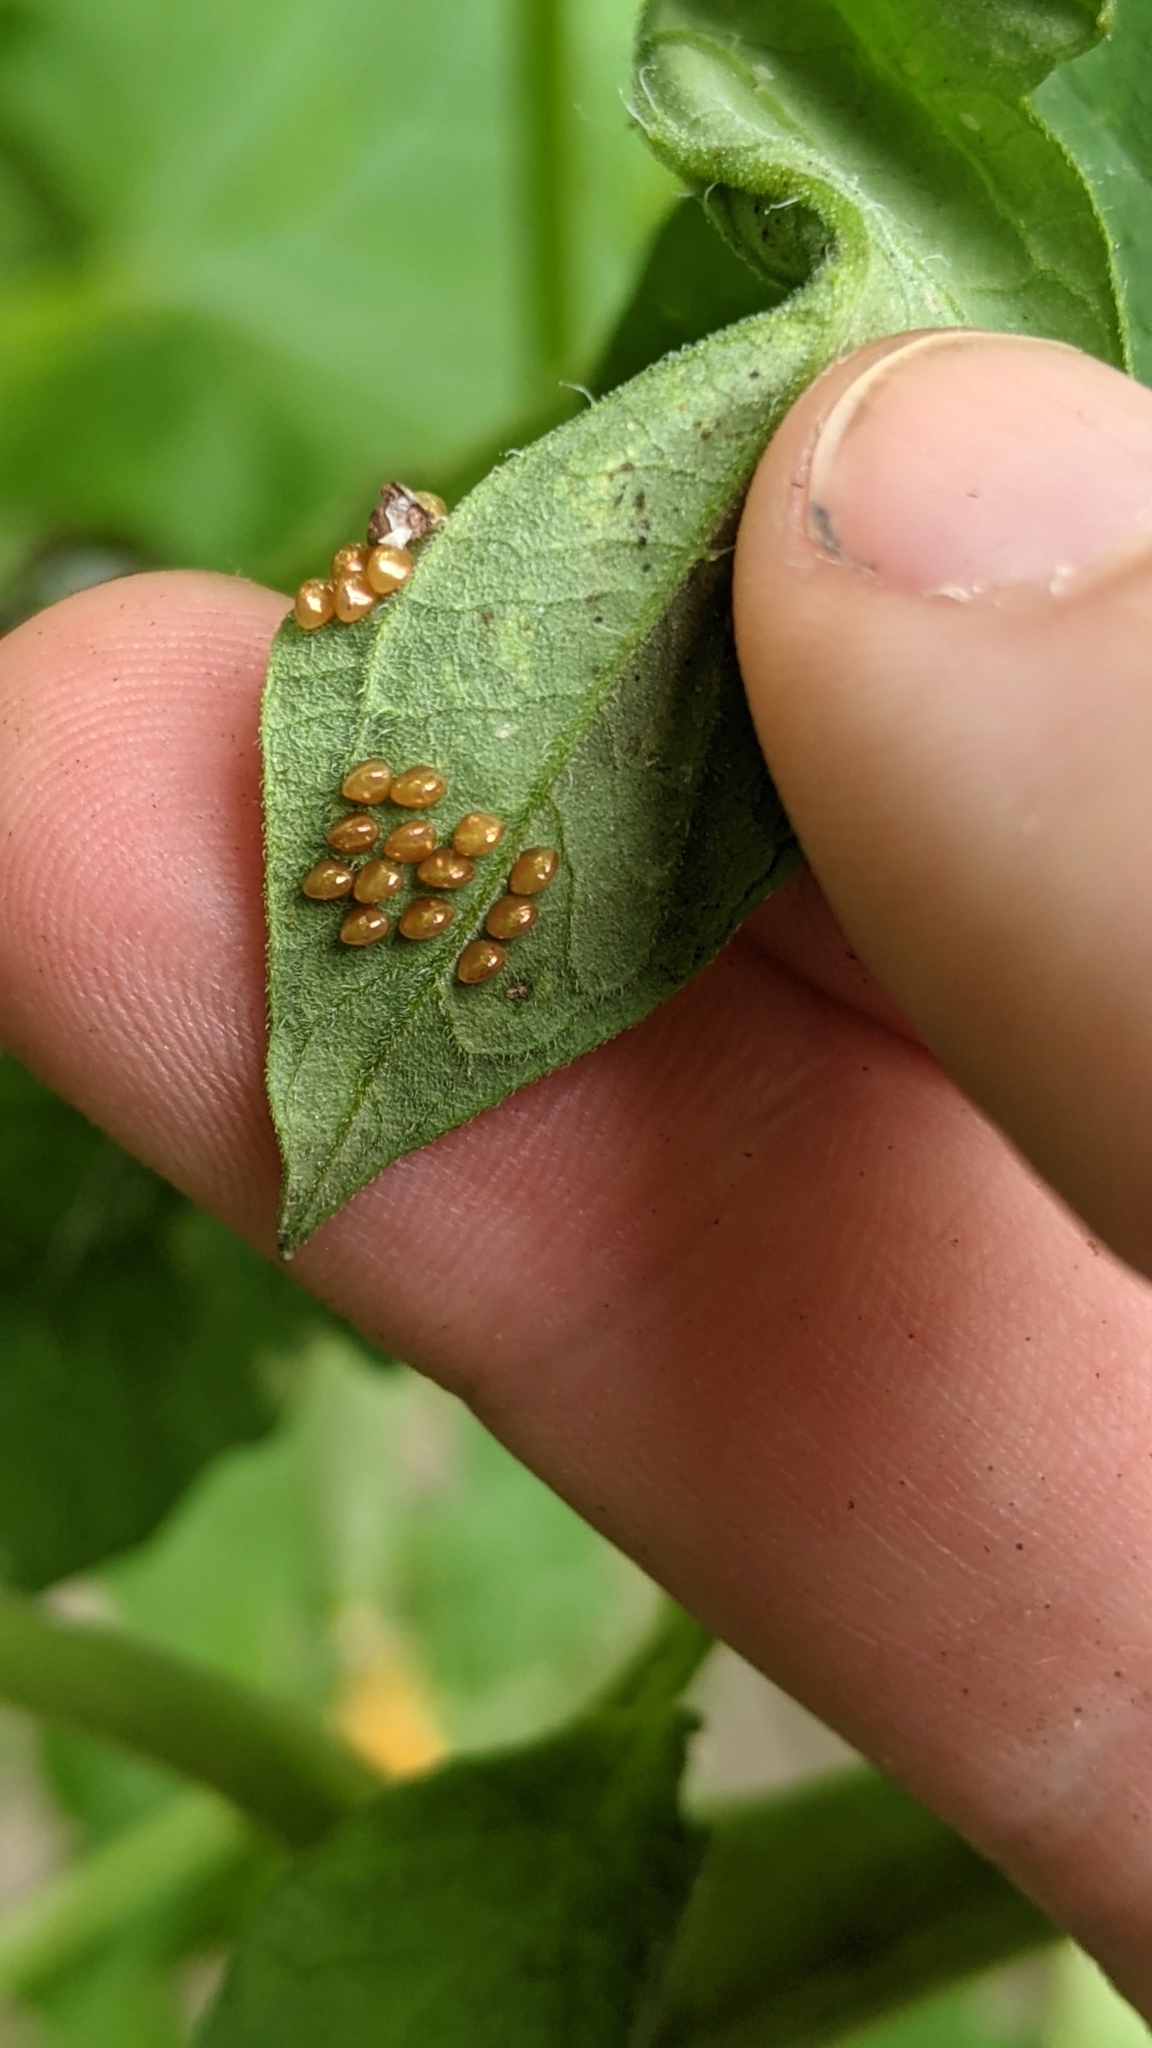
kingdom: Animalia
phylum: Arthropoda
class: Insecta
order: Hemiptera
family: Coreidae
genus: Anasa
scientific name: Anasa tristis
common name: Squash bug
